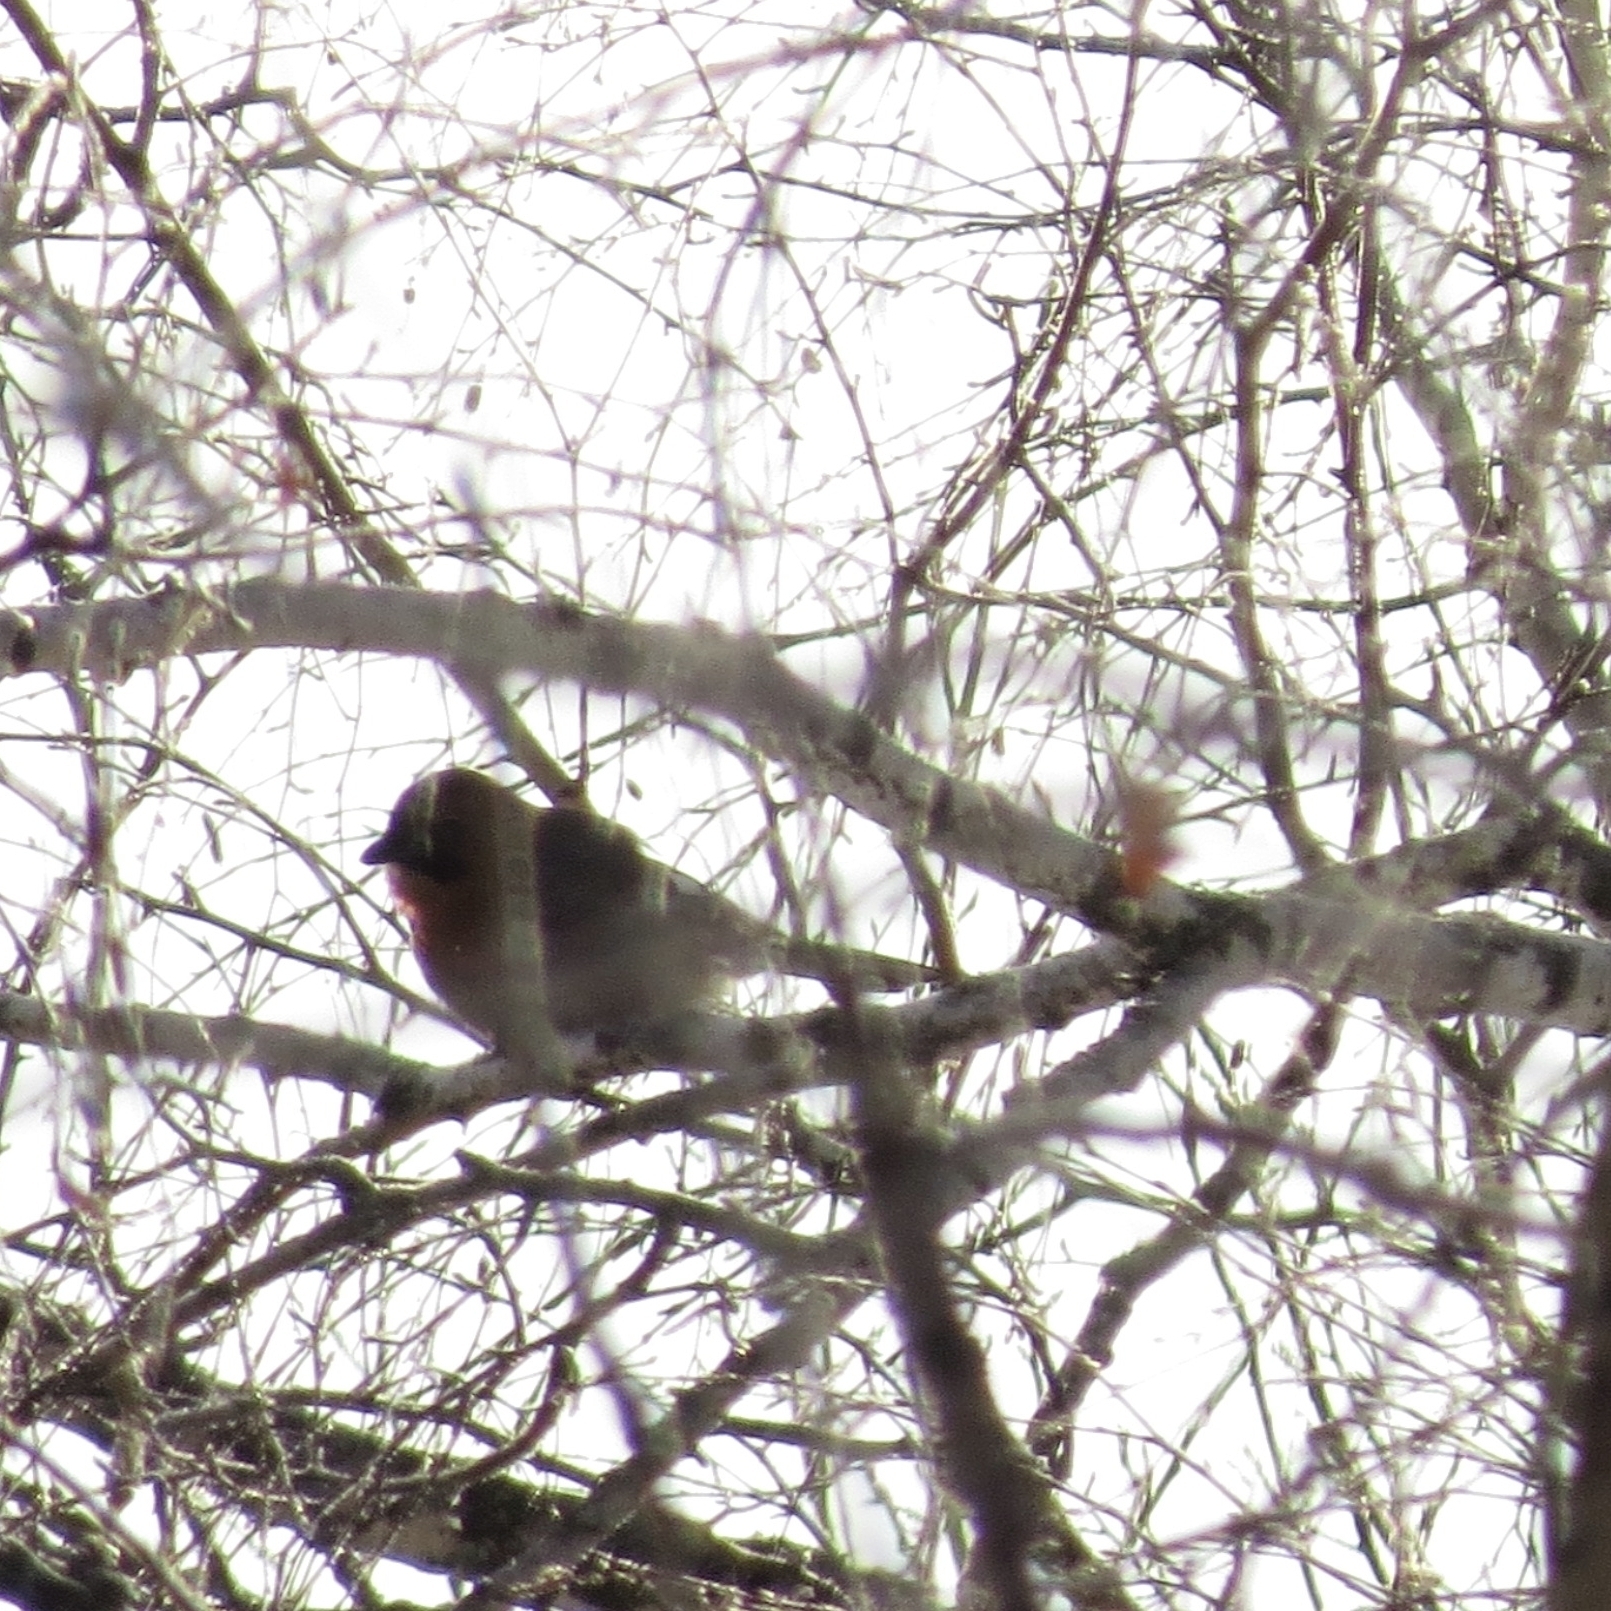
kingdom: Animalia
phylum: Chordata
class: Aves
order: Passeriformes
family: Corvidae
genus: Garrulus
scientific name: Garrulus glandarius
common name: Eurasian jay
